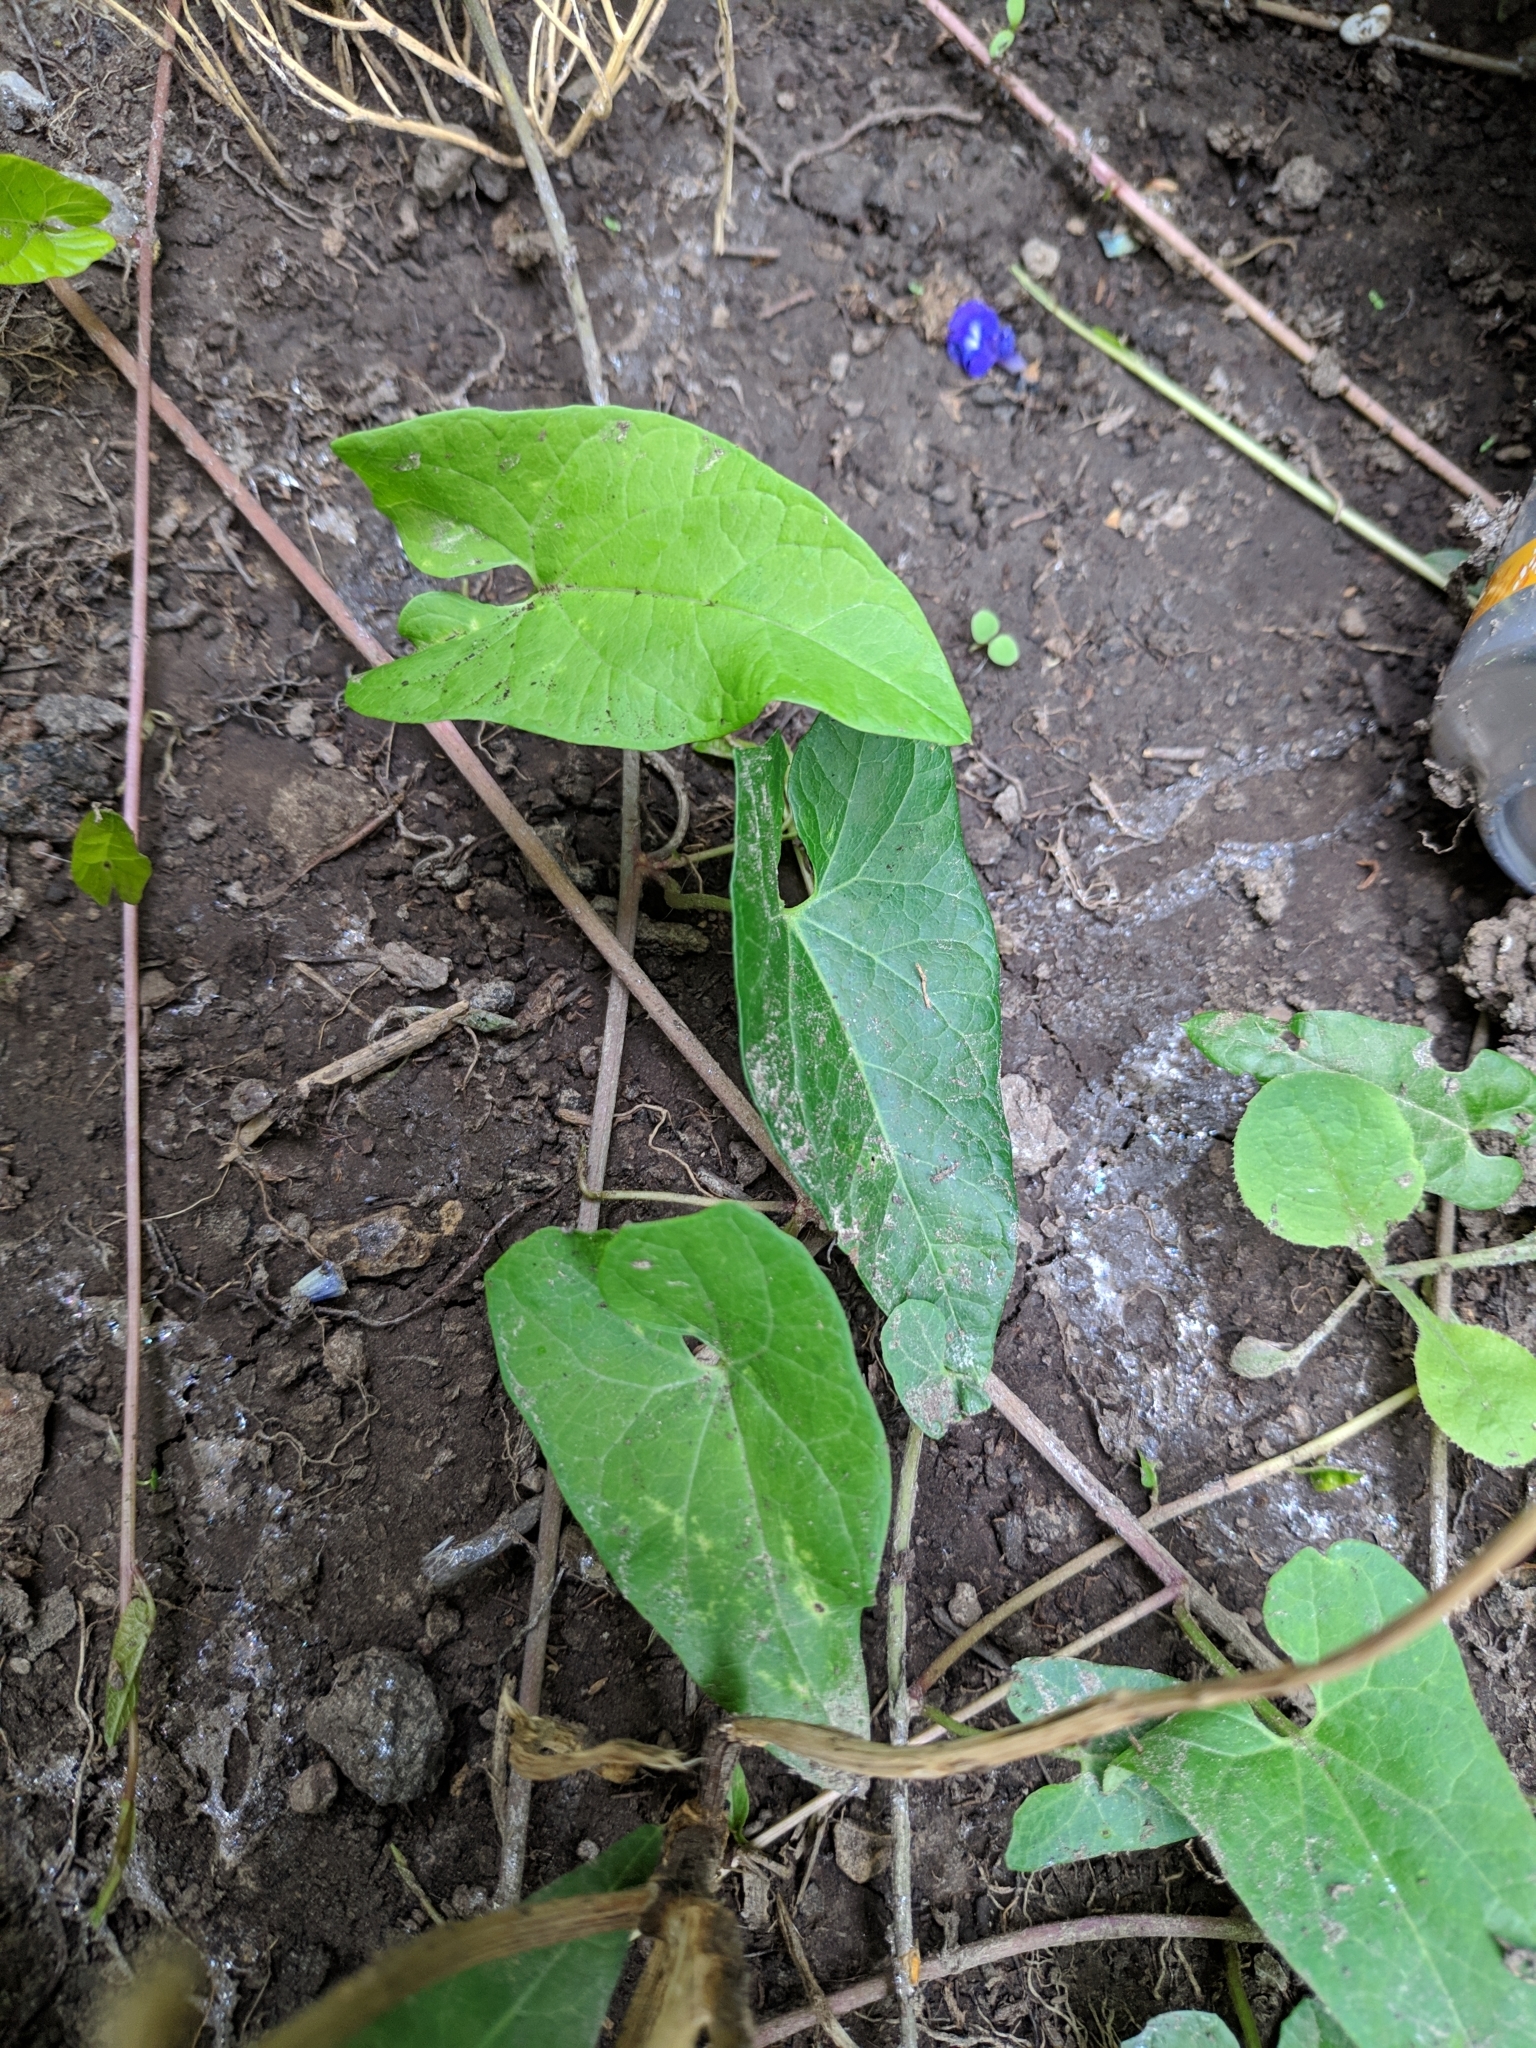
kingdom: Plantae
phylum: Tracheophyta
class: Magnoliopsida
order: Solanales
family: Convolvulaceae
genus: Calystegia
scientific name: Calystegia
